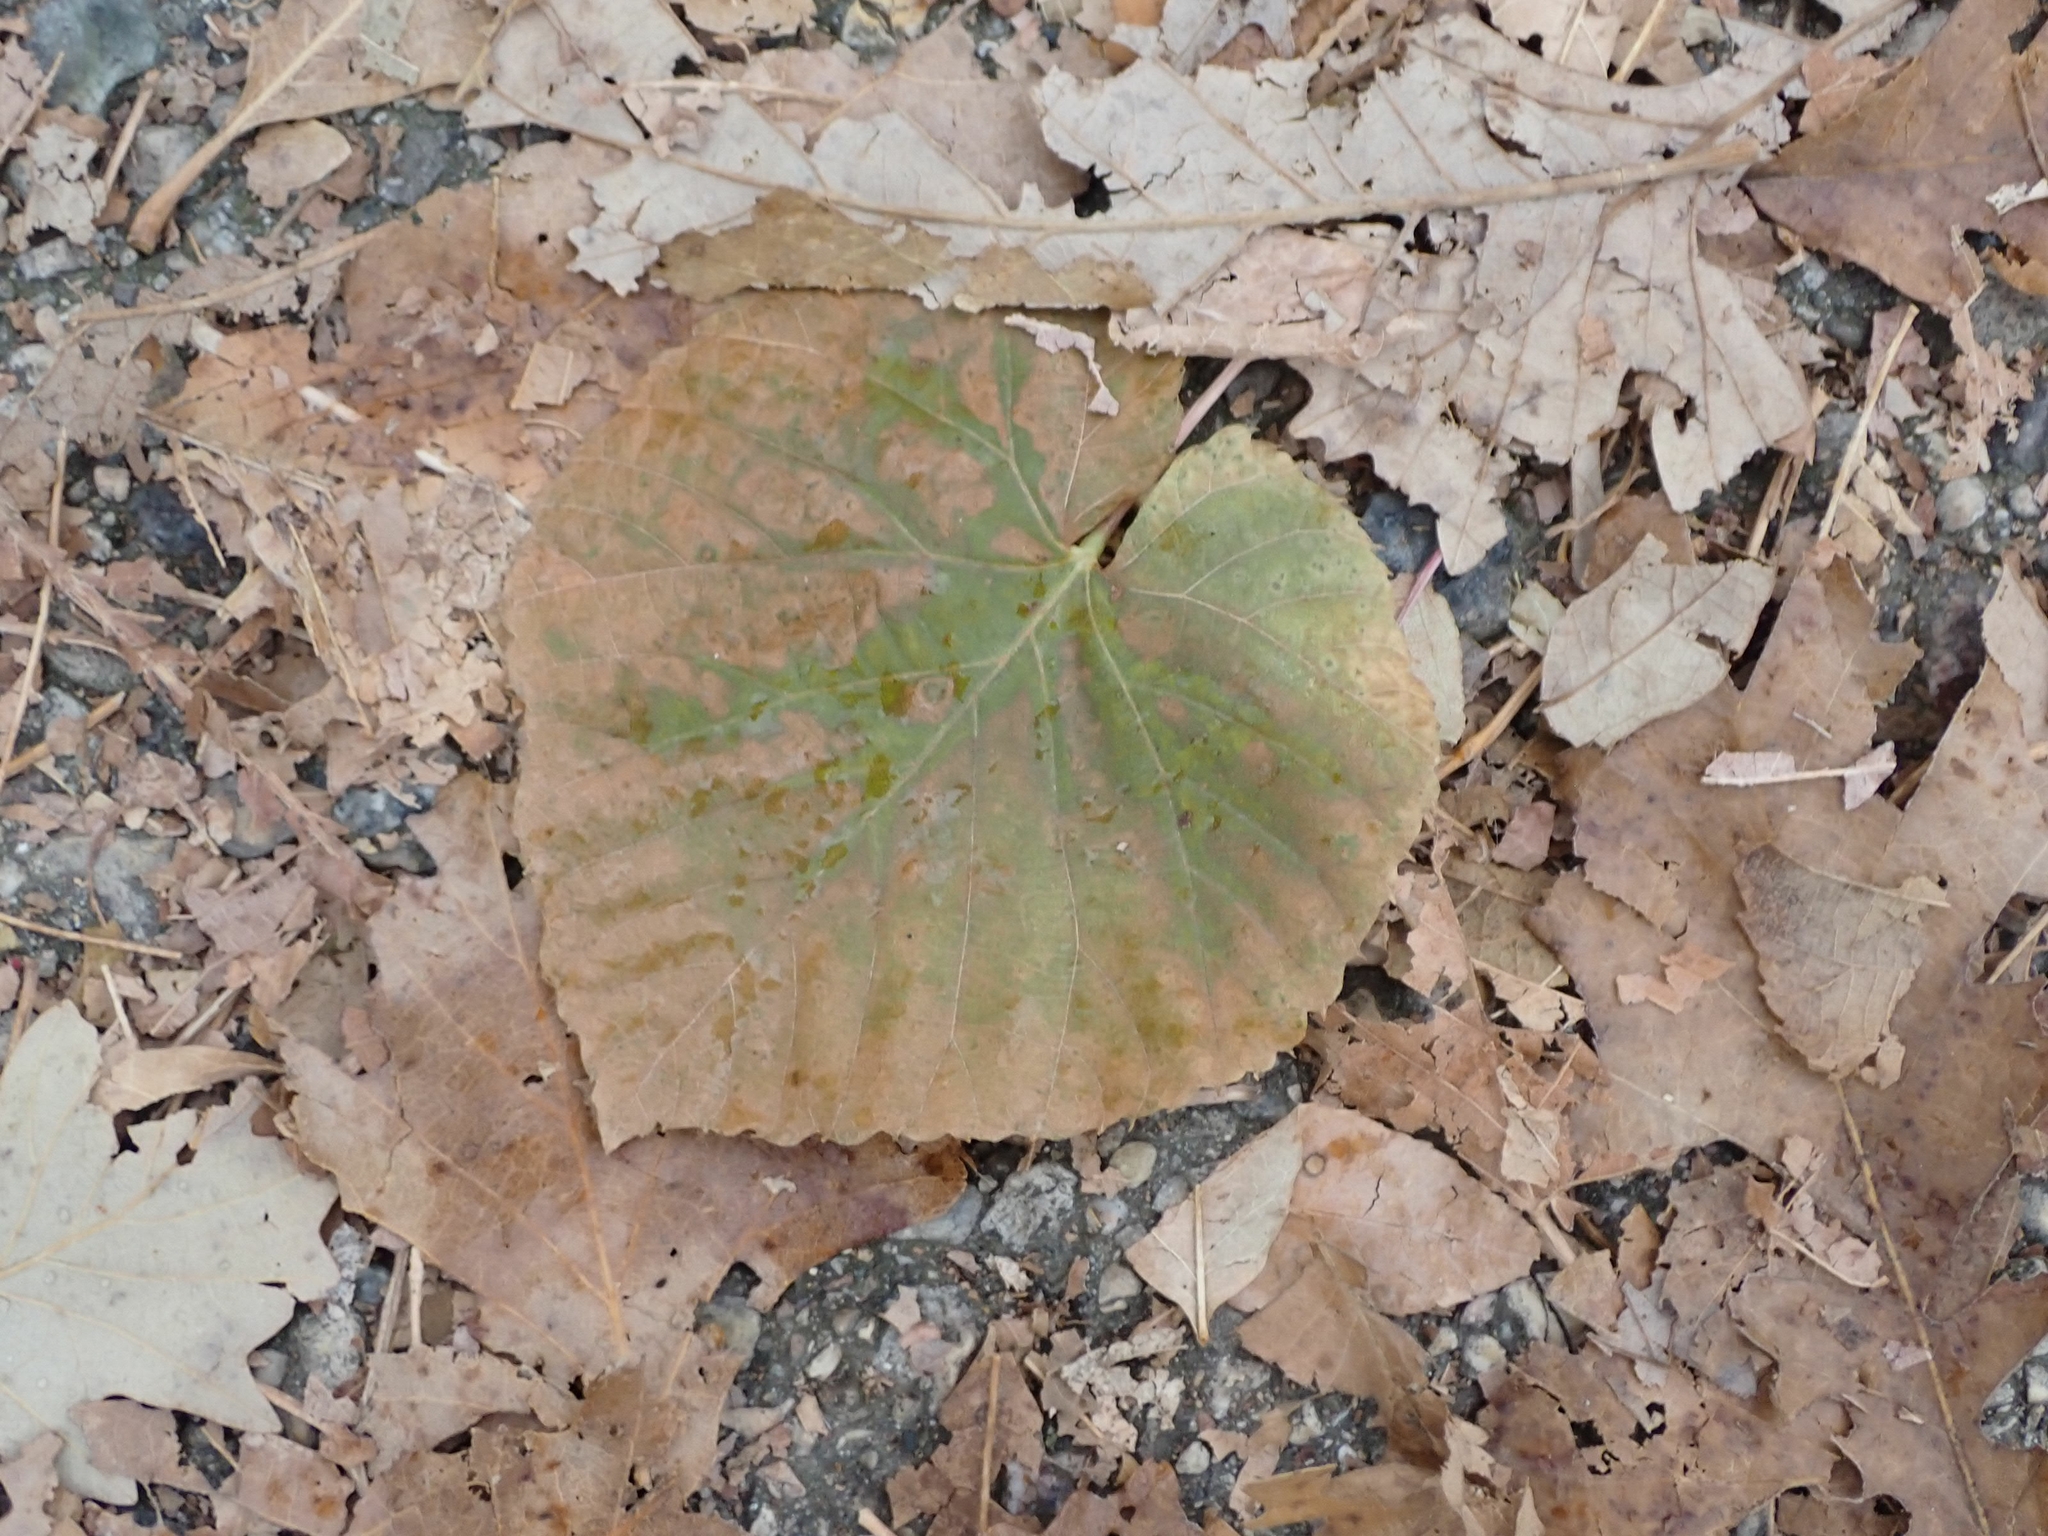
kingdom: Plantae
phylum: Tracheophyta
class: Magnoliopsida
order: Malvales
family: Malvaceae
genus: Tilia
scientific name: Tilia americana
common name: Basswood
